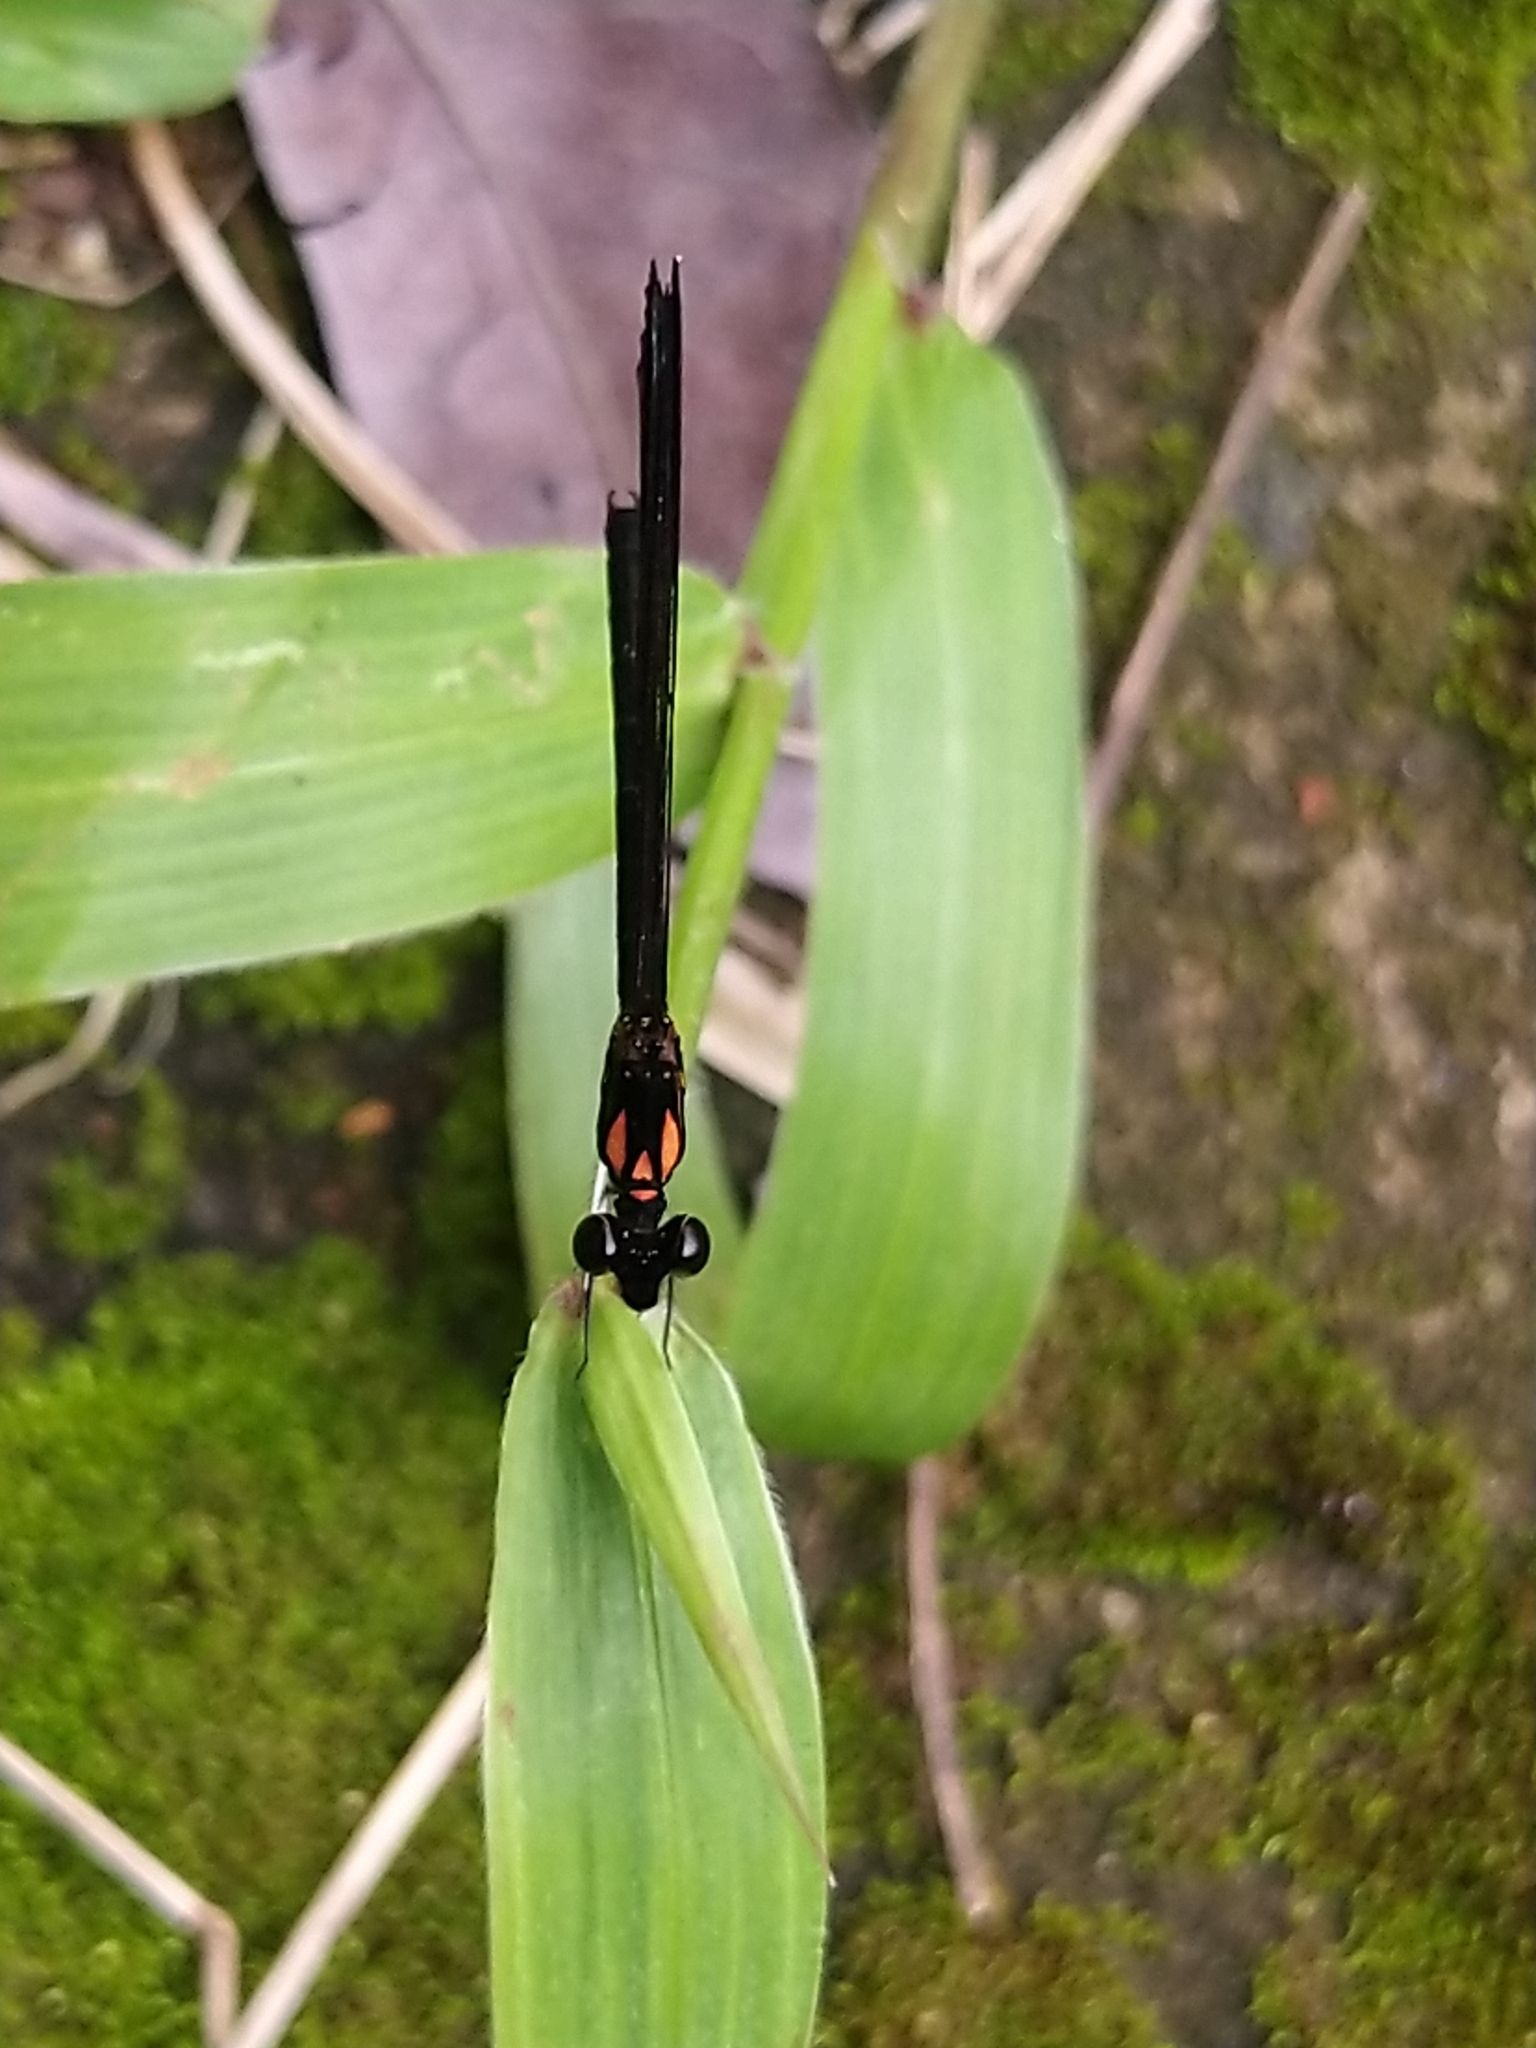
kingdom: Animalia
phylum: Arthropoda
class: Insecta
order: Odonata
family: Chlorocyphidae
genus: Heliocypha
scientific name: Heliocypha bisignata
